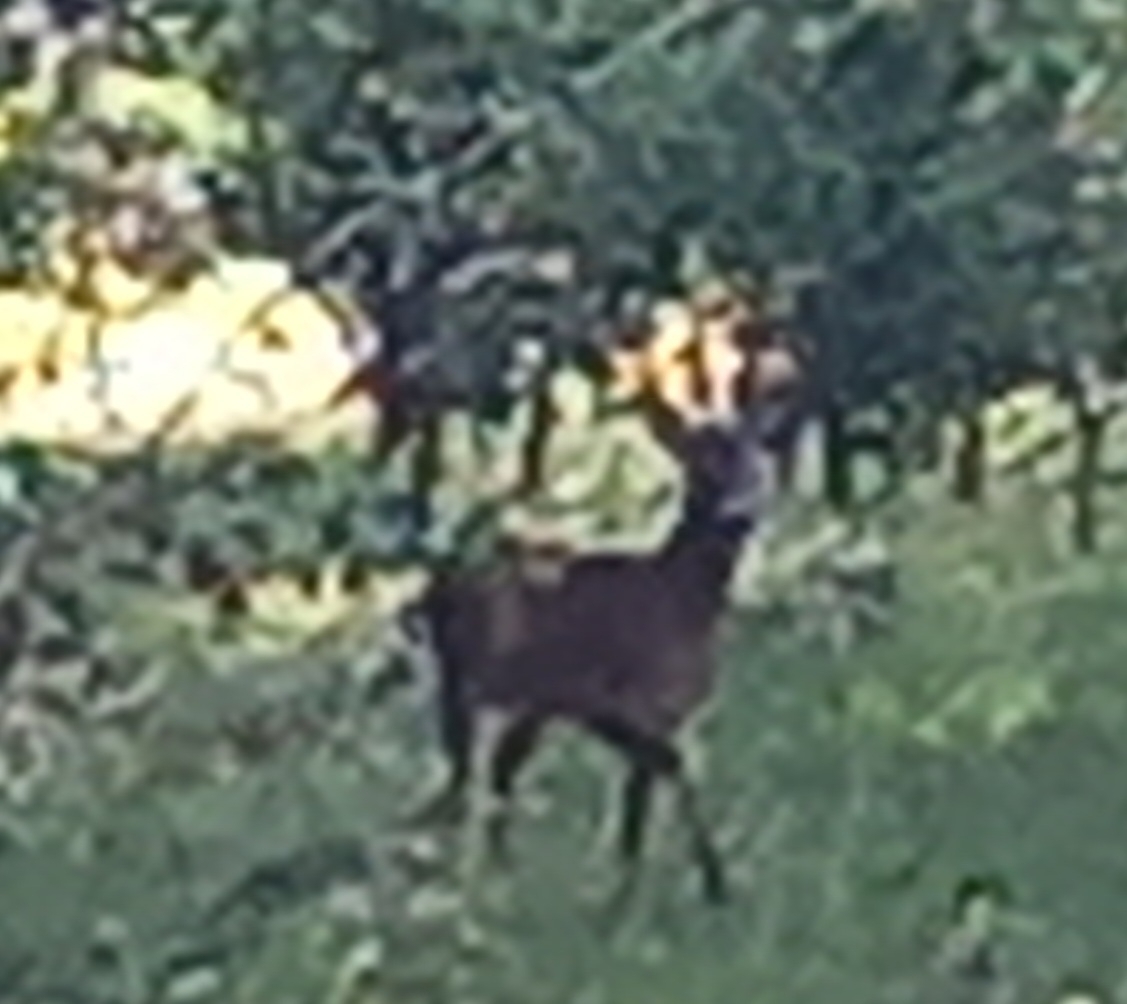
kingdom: Animalia
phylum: Chordata
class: Mammalia
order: Artiodactyla
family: Cervidae
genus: Capreolus
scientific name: Capreolus capreolus
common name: Western roe deer
